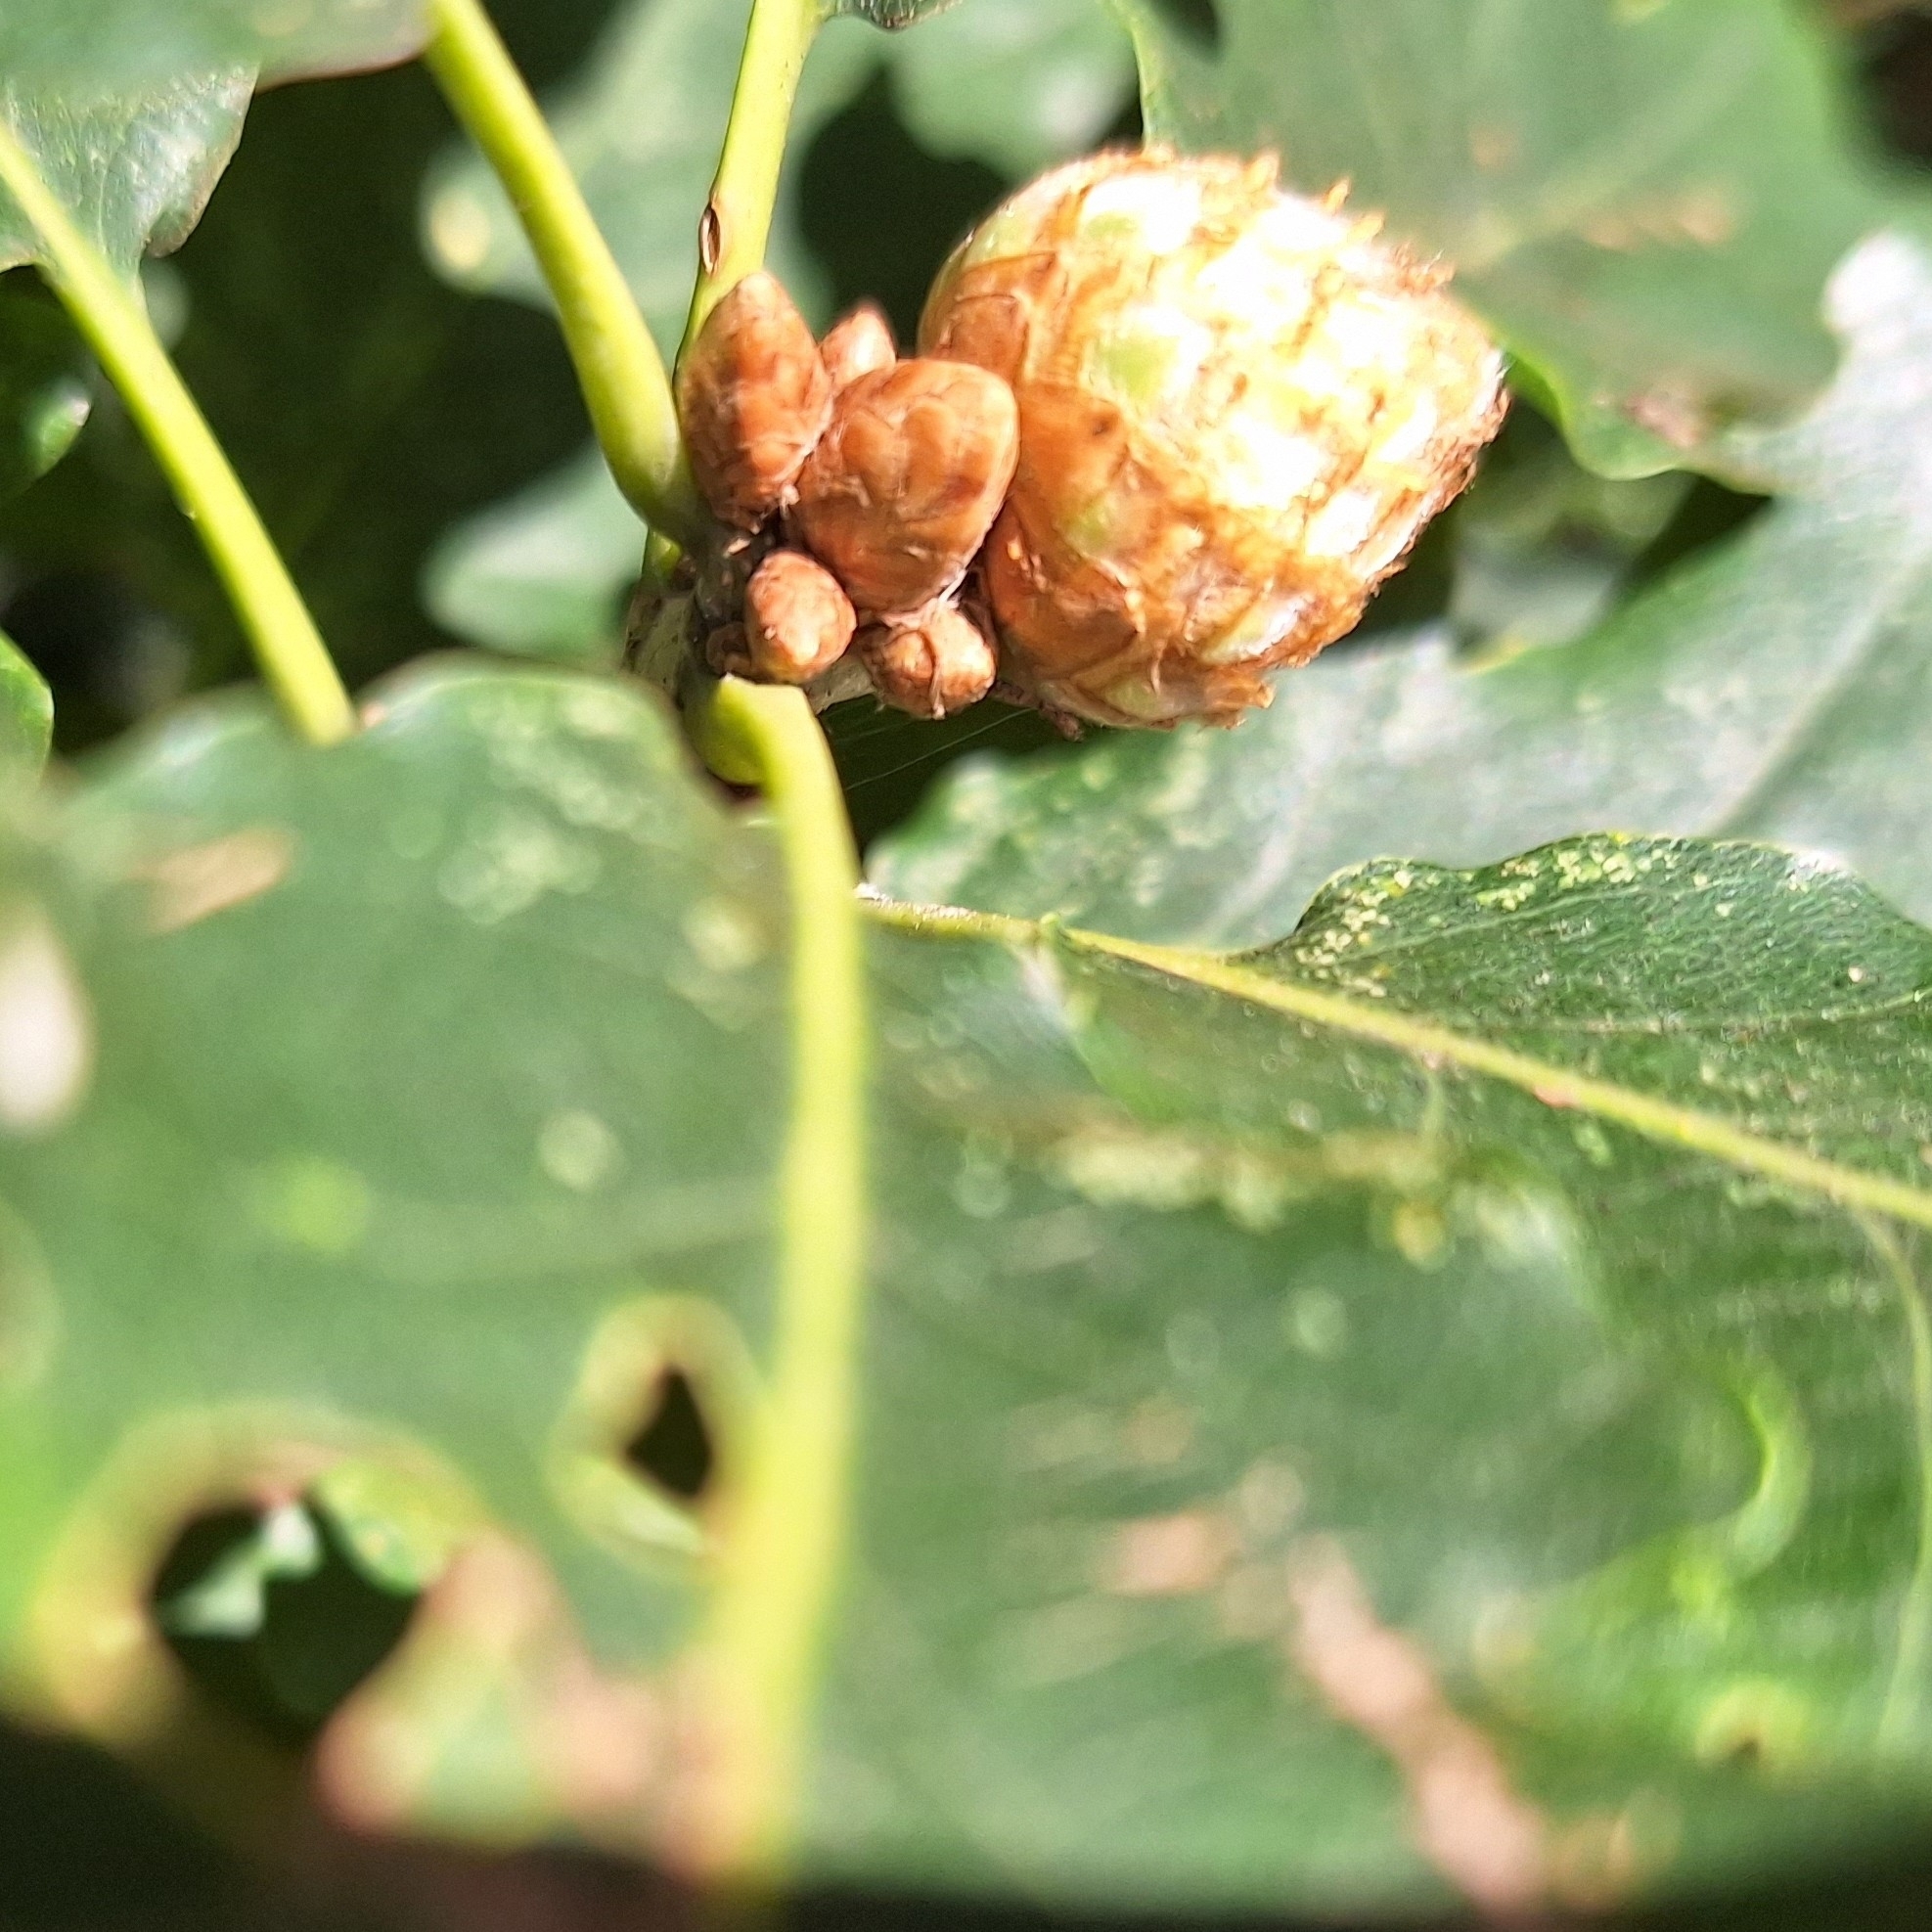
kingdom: Animalia
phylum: Arthropoda
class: Insecta
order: Hymenoptera
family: Cynipidae
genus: Andricus
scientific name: Andricus foecundatrix
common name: Artichoke gall
